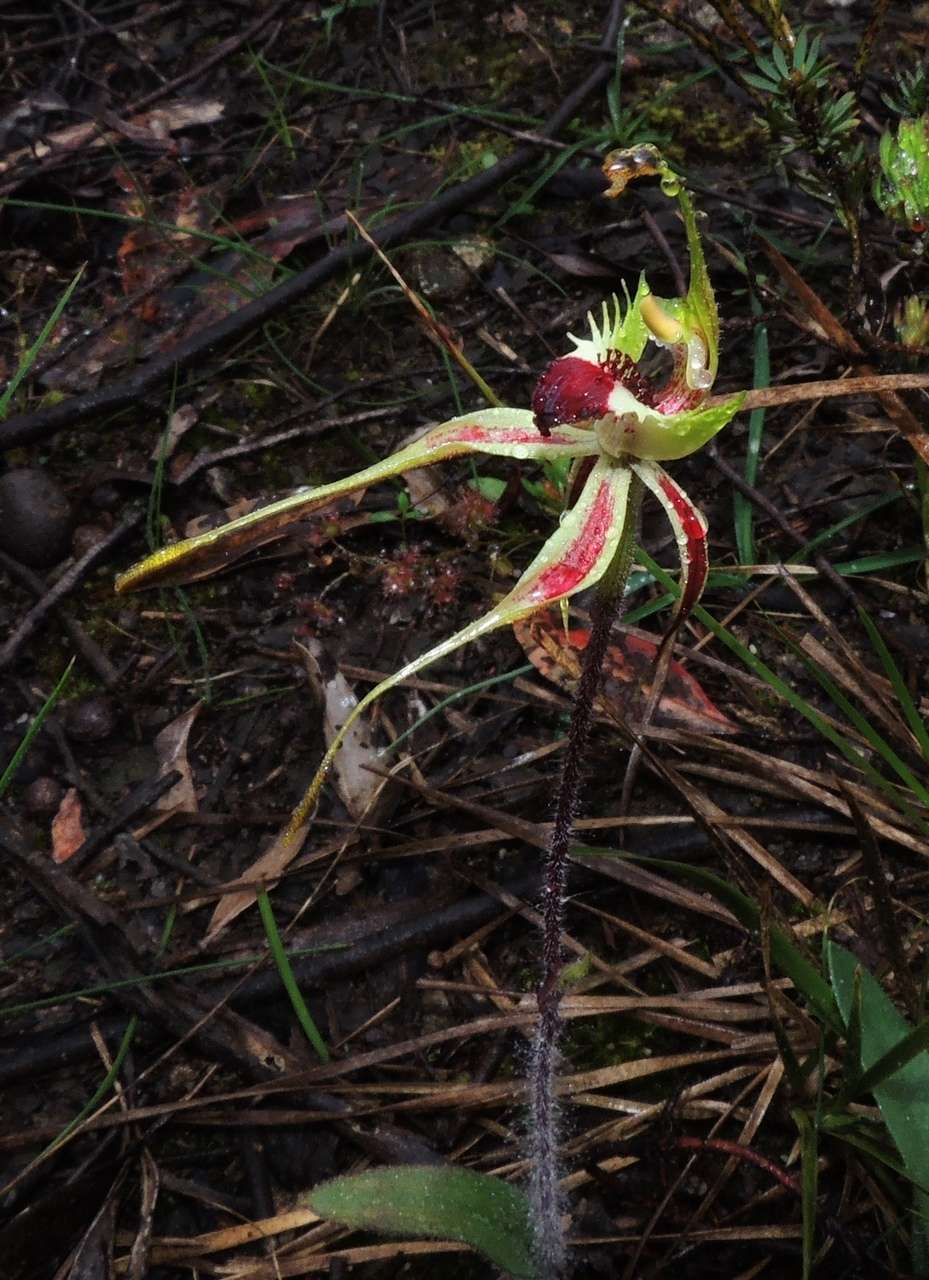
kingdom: Plantae
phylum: Tracheophyta
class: Liliopsida
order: Asparagales
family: Orchidaceae
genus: Caladenia
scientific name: Caladenia parva
